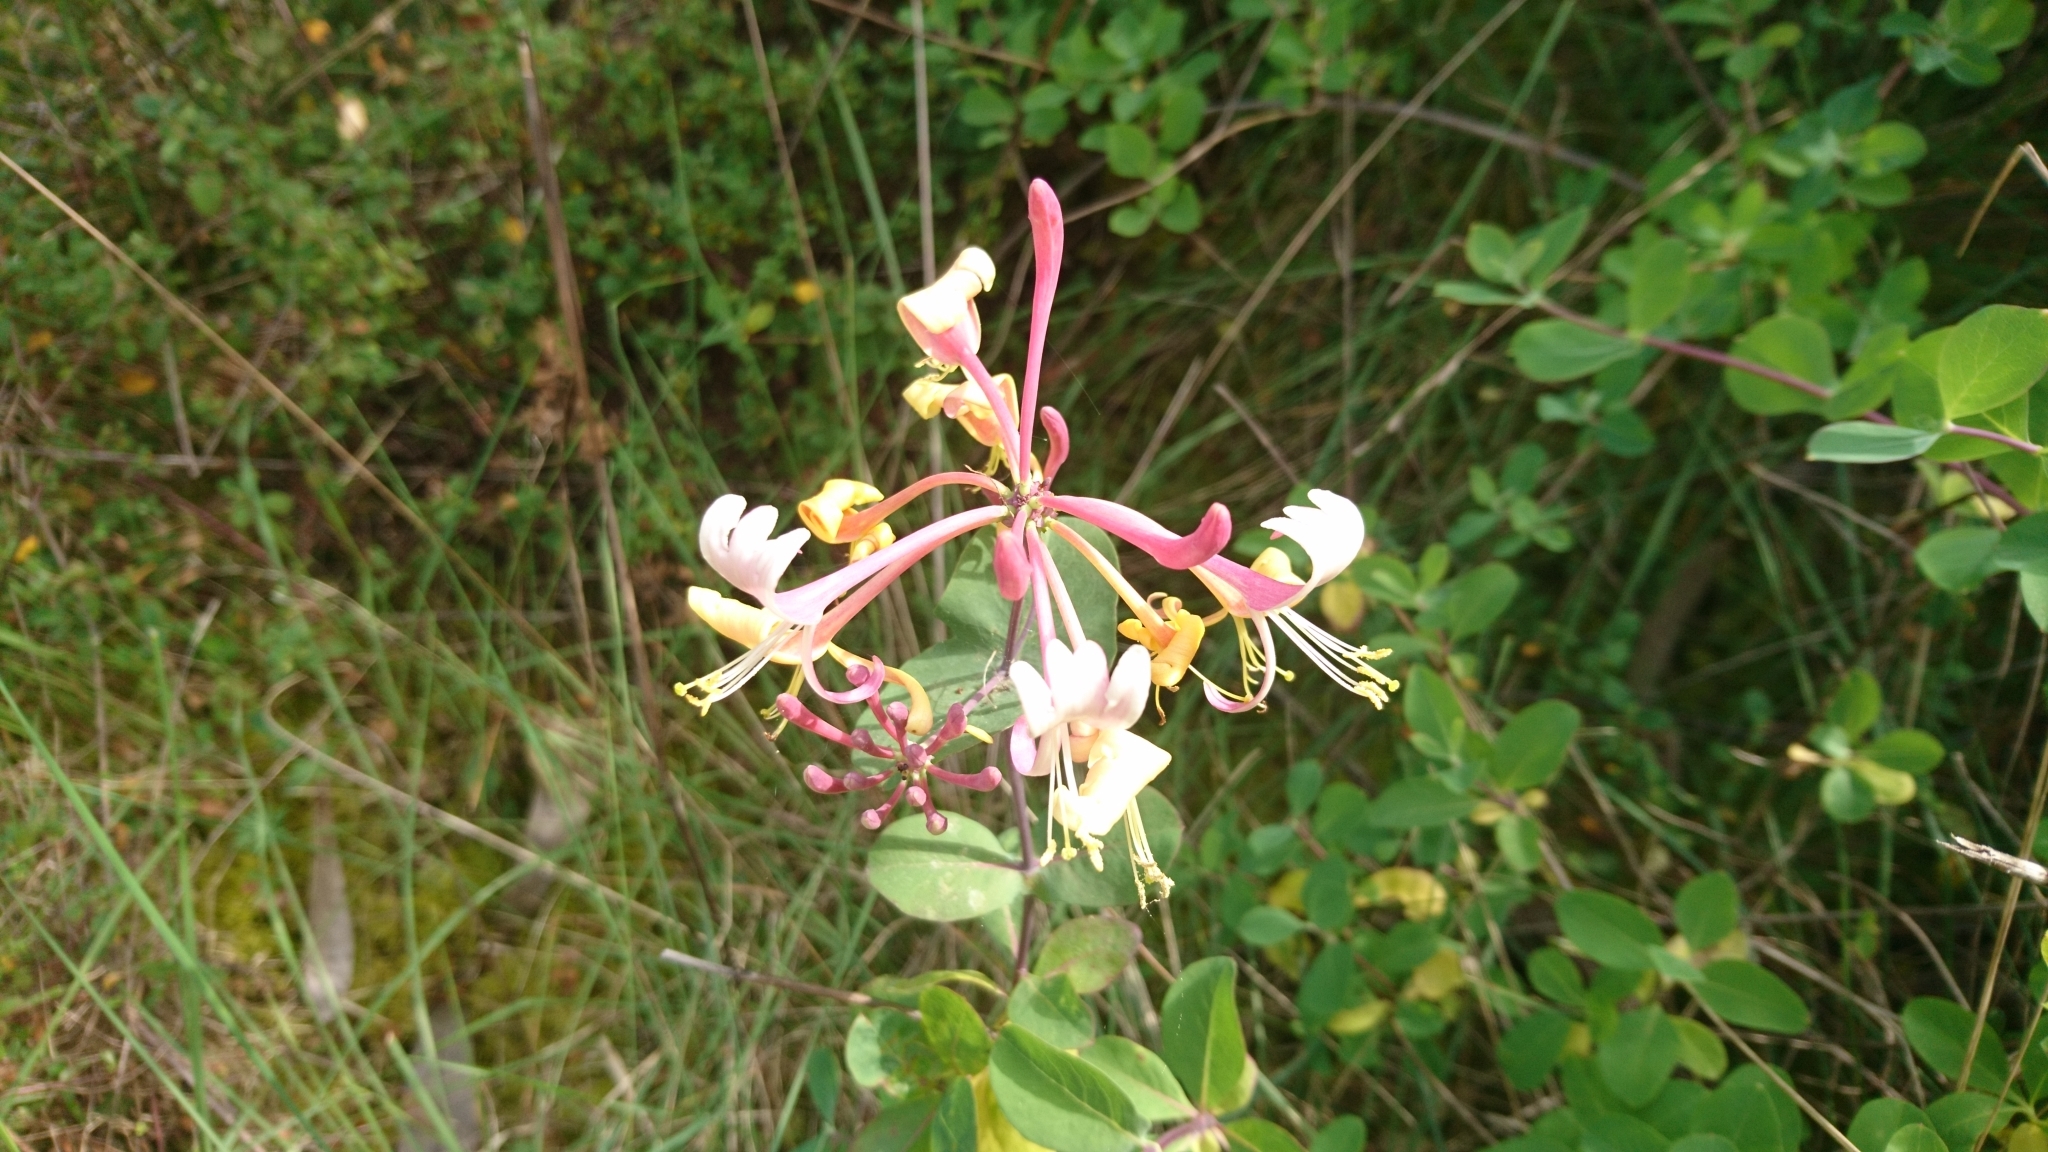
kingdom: Plantae
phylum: Tracheophyta
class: Magnoliopsida
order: Dipsacales
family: Caprifoliaceae
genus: Lonicera
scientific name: Lonicera etrusca
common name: Etruscan honeysuckle
